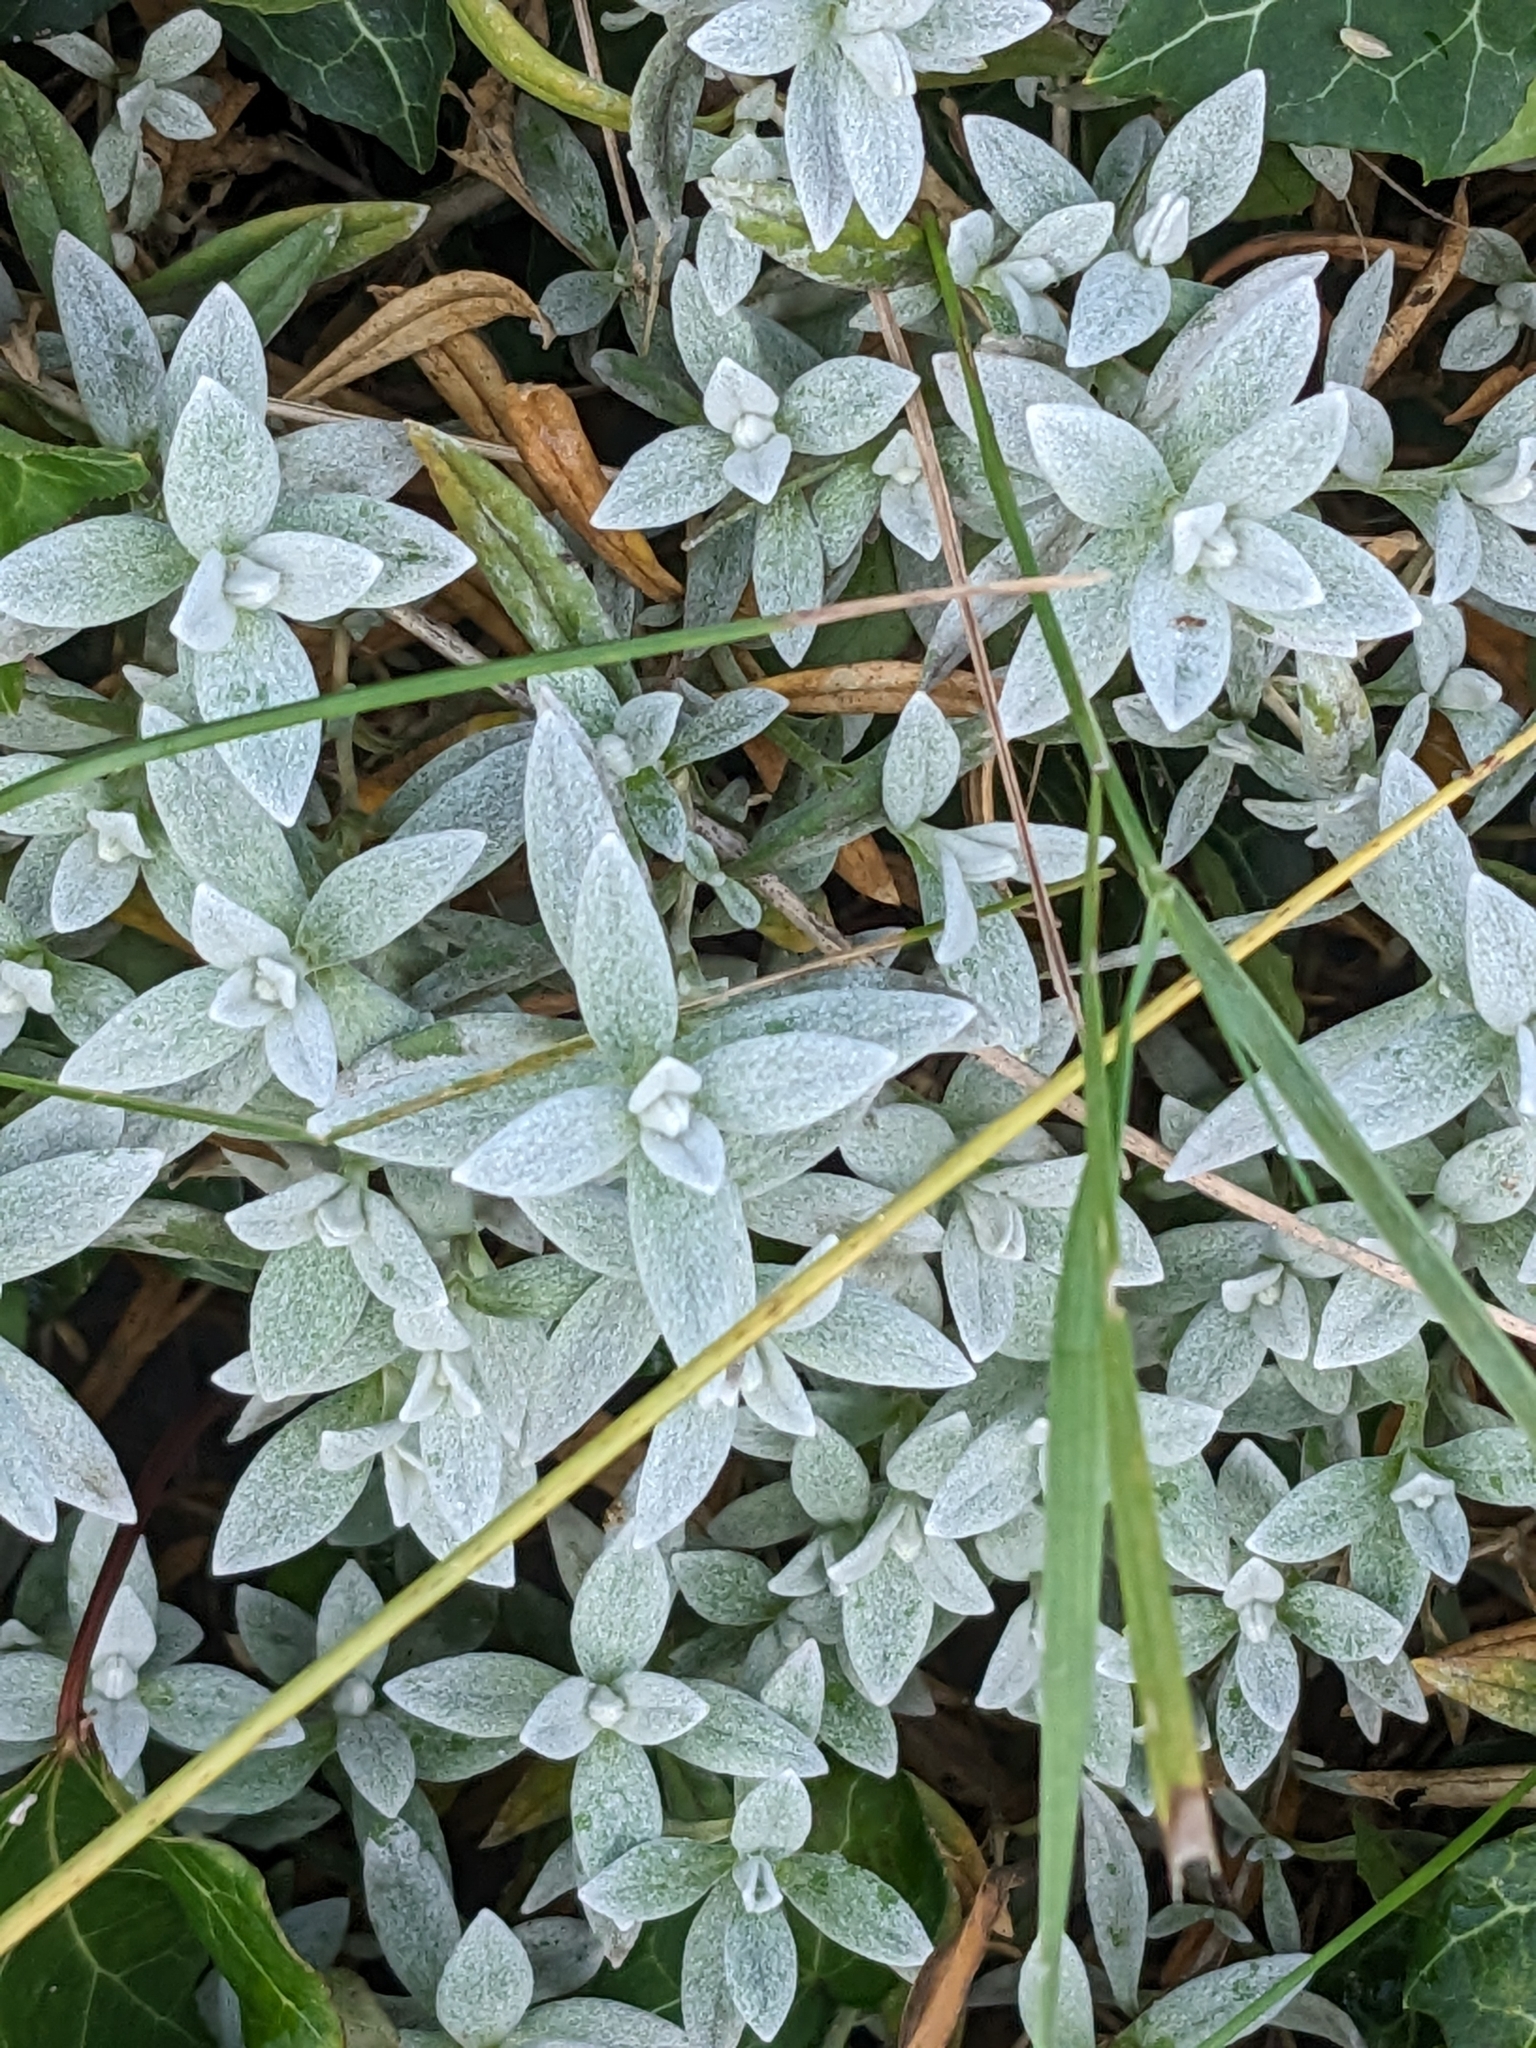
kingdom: Plantae
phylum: Tracheophyta
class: Magnoliopsida
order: Caryophyllales
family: Caryophyllaceae
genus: Cerastium
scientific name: Cerastium tomentosum
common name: Snow-in-summer
